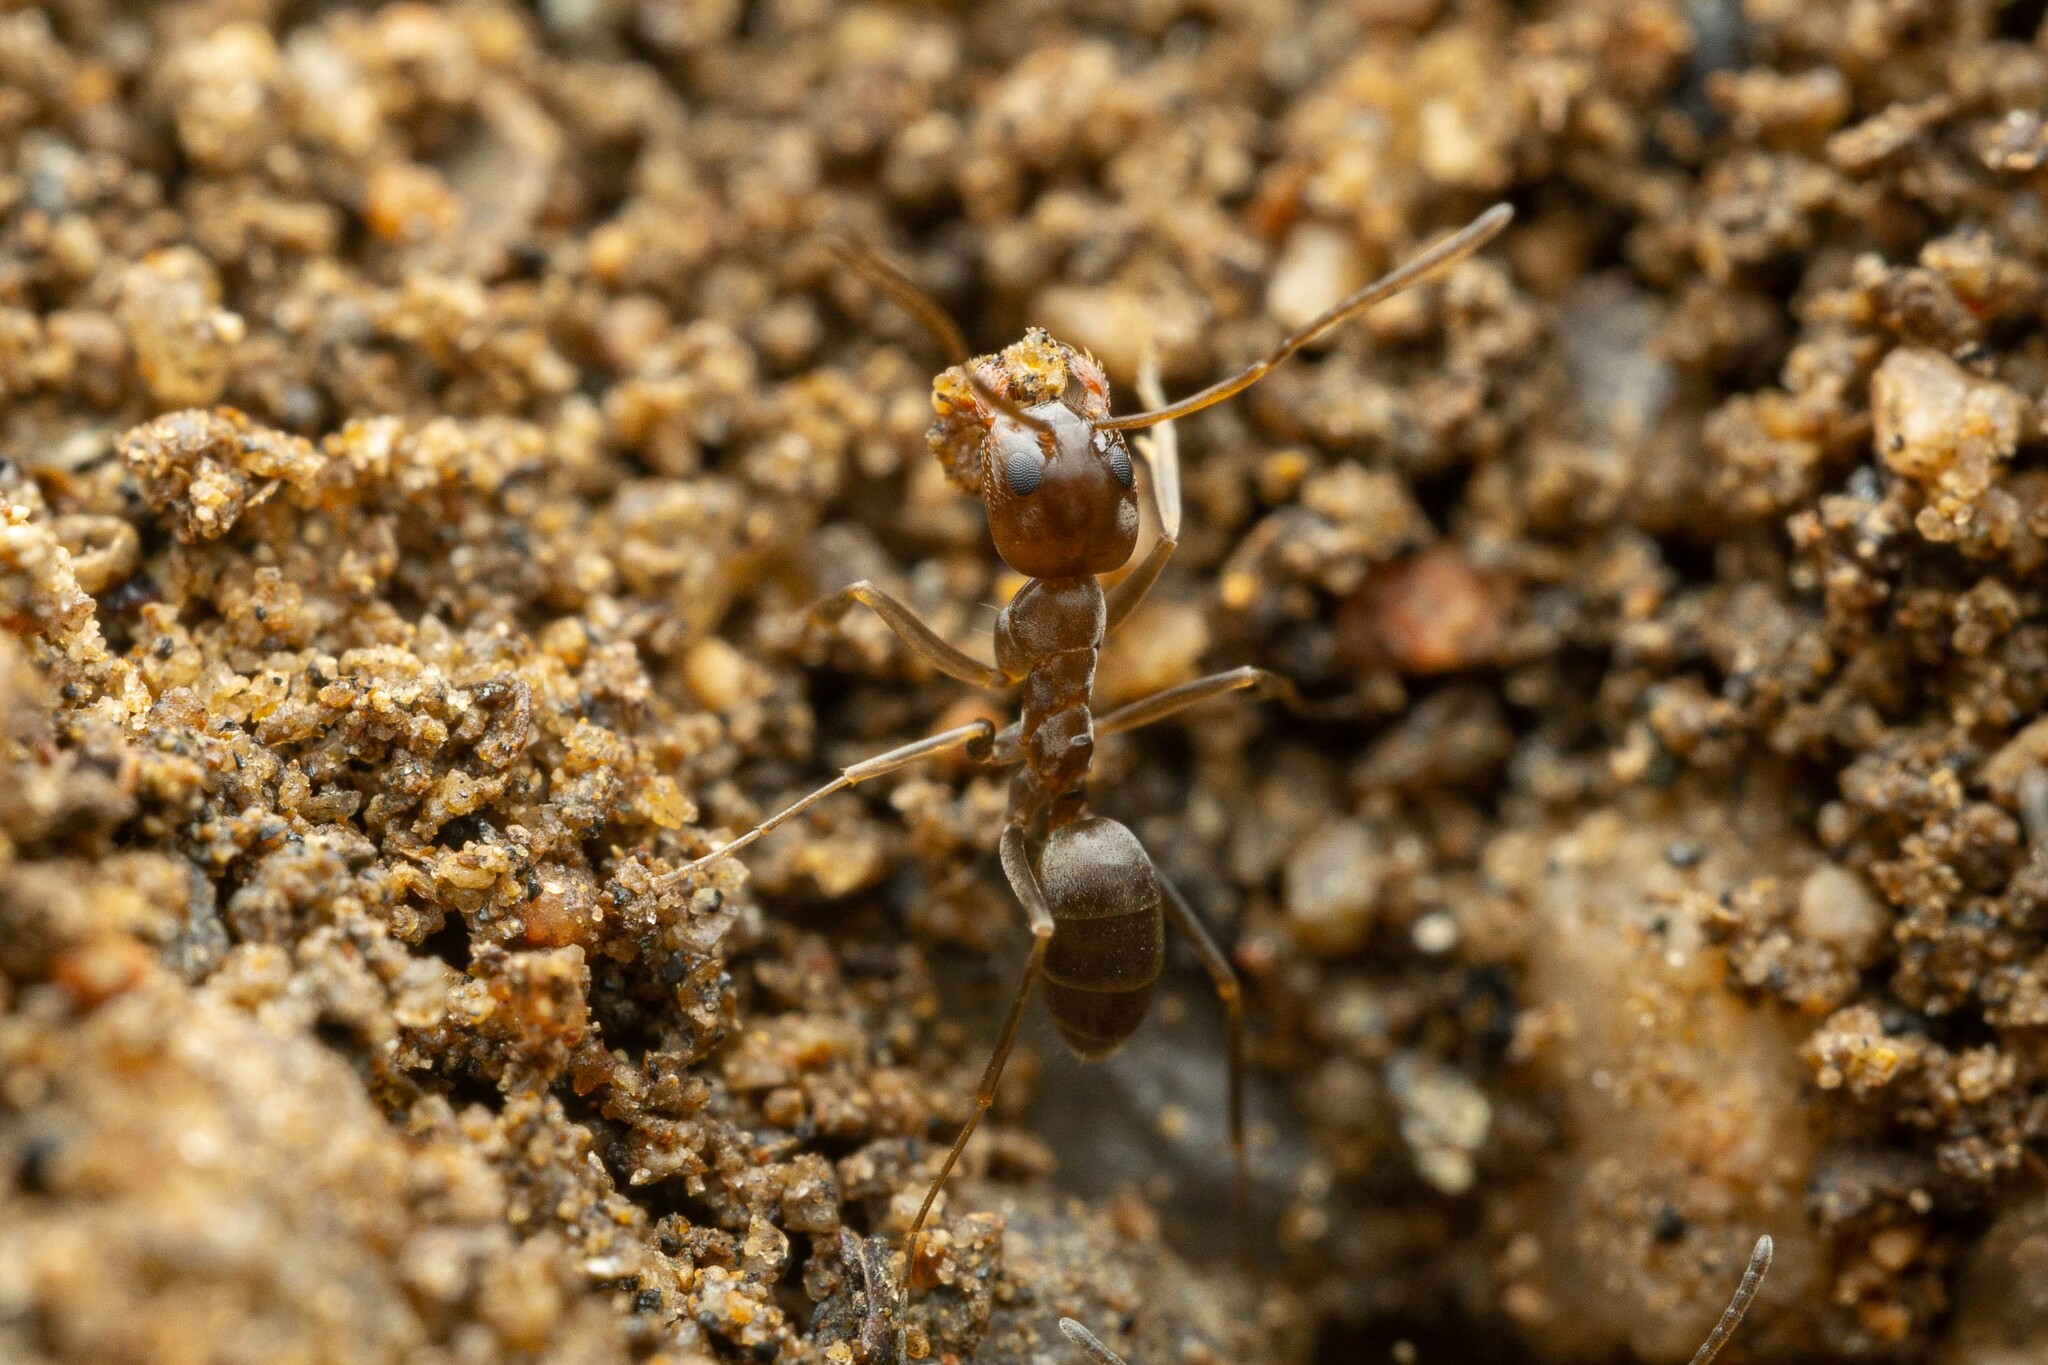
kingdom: Animalia
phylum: Arthropoda
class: Insecta
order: Hymenoptera
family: Formicidae
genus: Dorymyrmex
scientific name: Dorymyrmex
